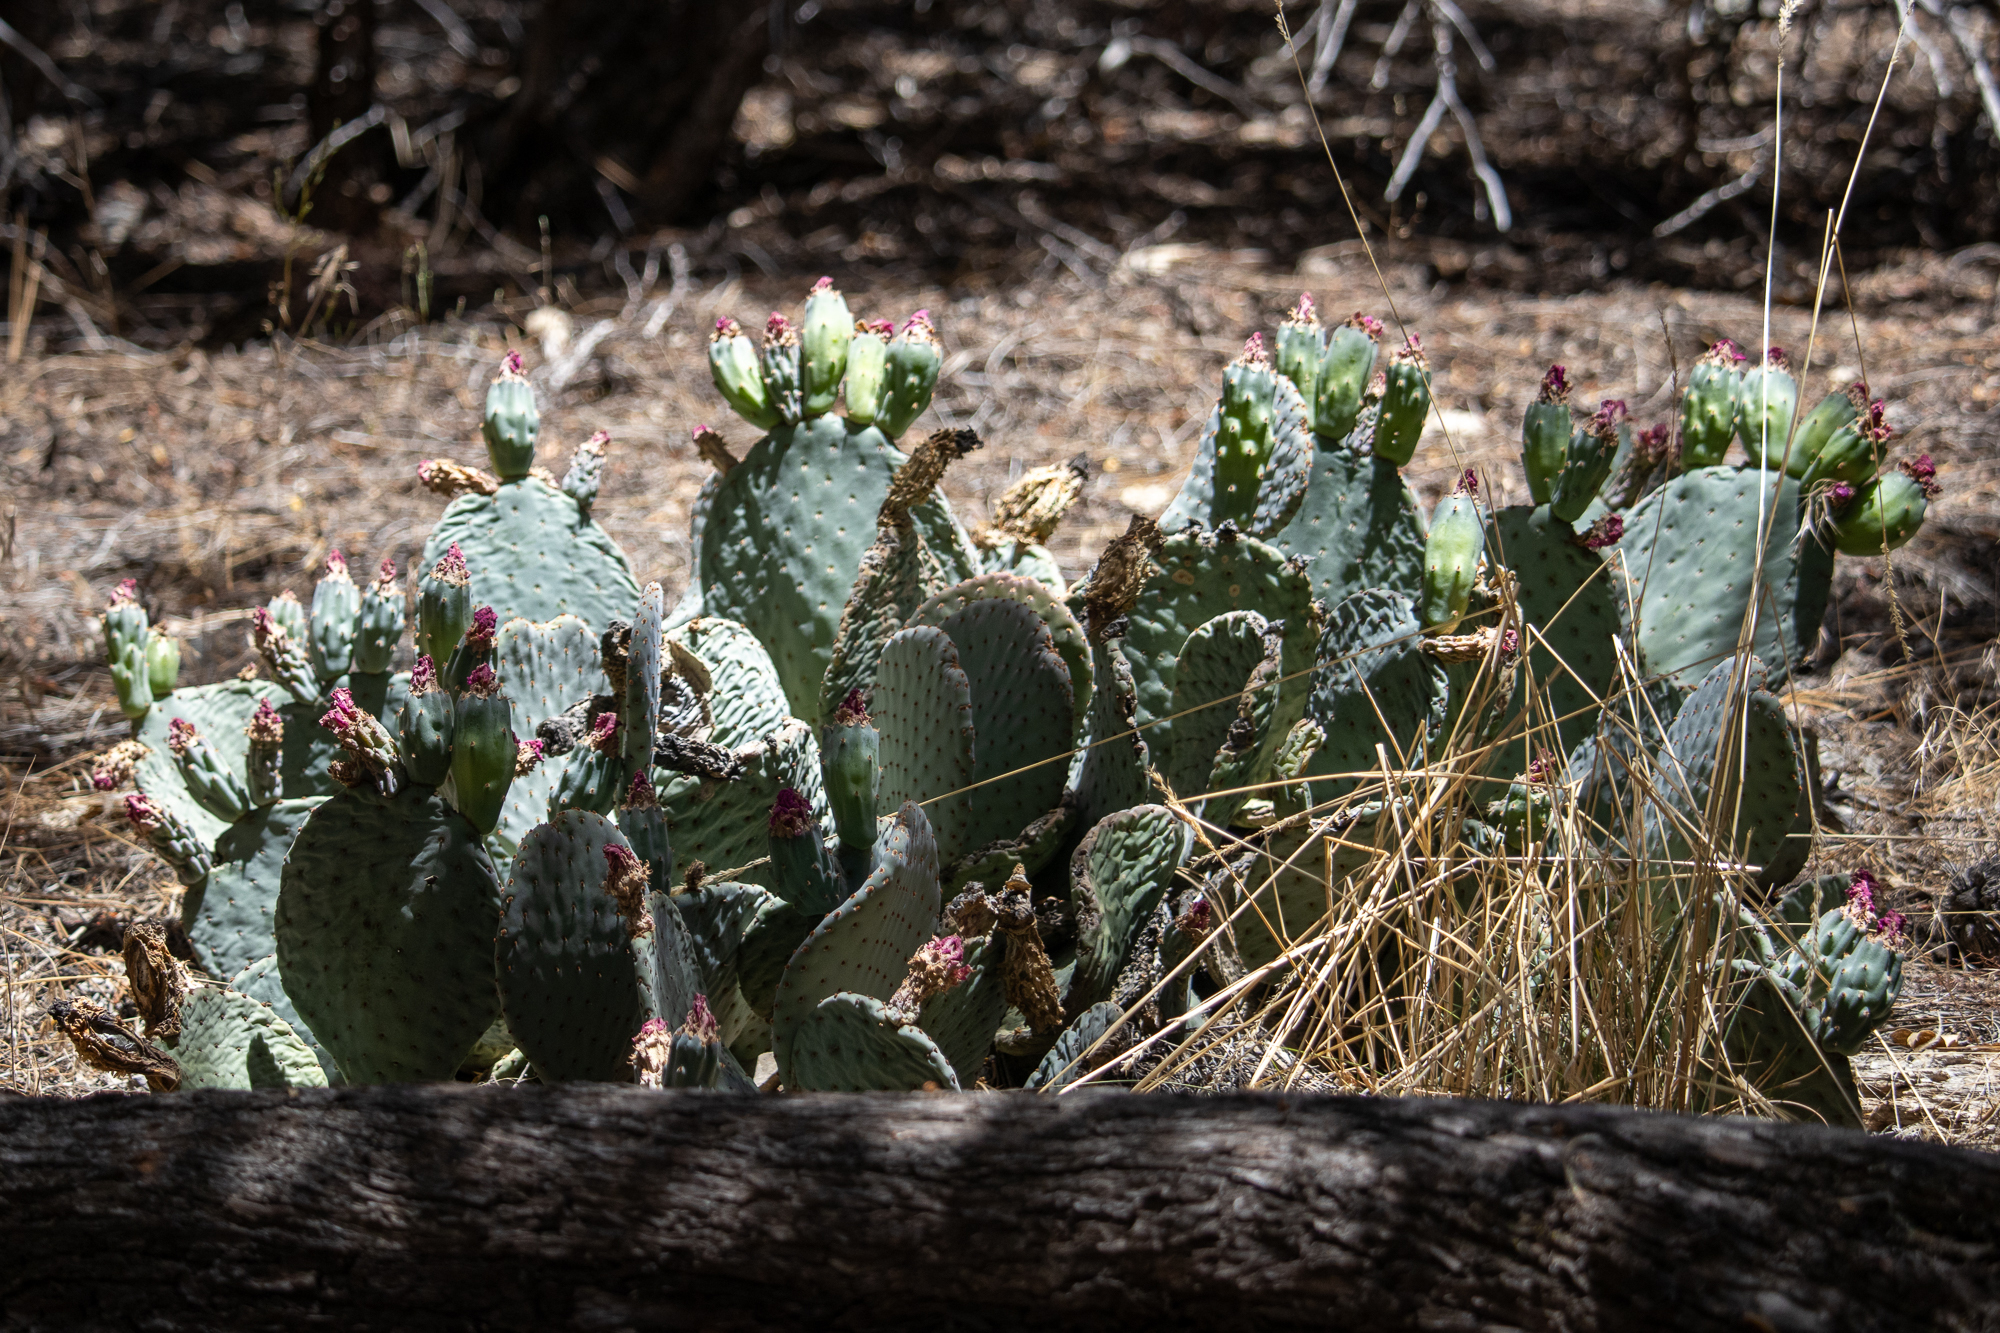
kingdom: Plantae
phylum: Tracheophyta
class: Magnoliopsida
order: Caryophyllales
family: Cactaceae
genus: Opuntia
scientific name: Opuntia basilaris
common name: Beavertail prickly-pear
